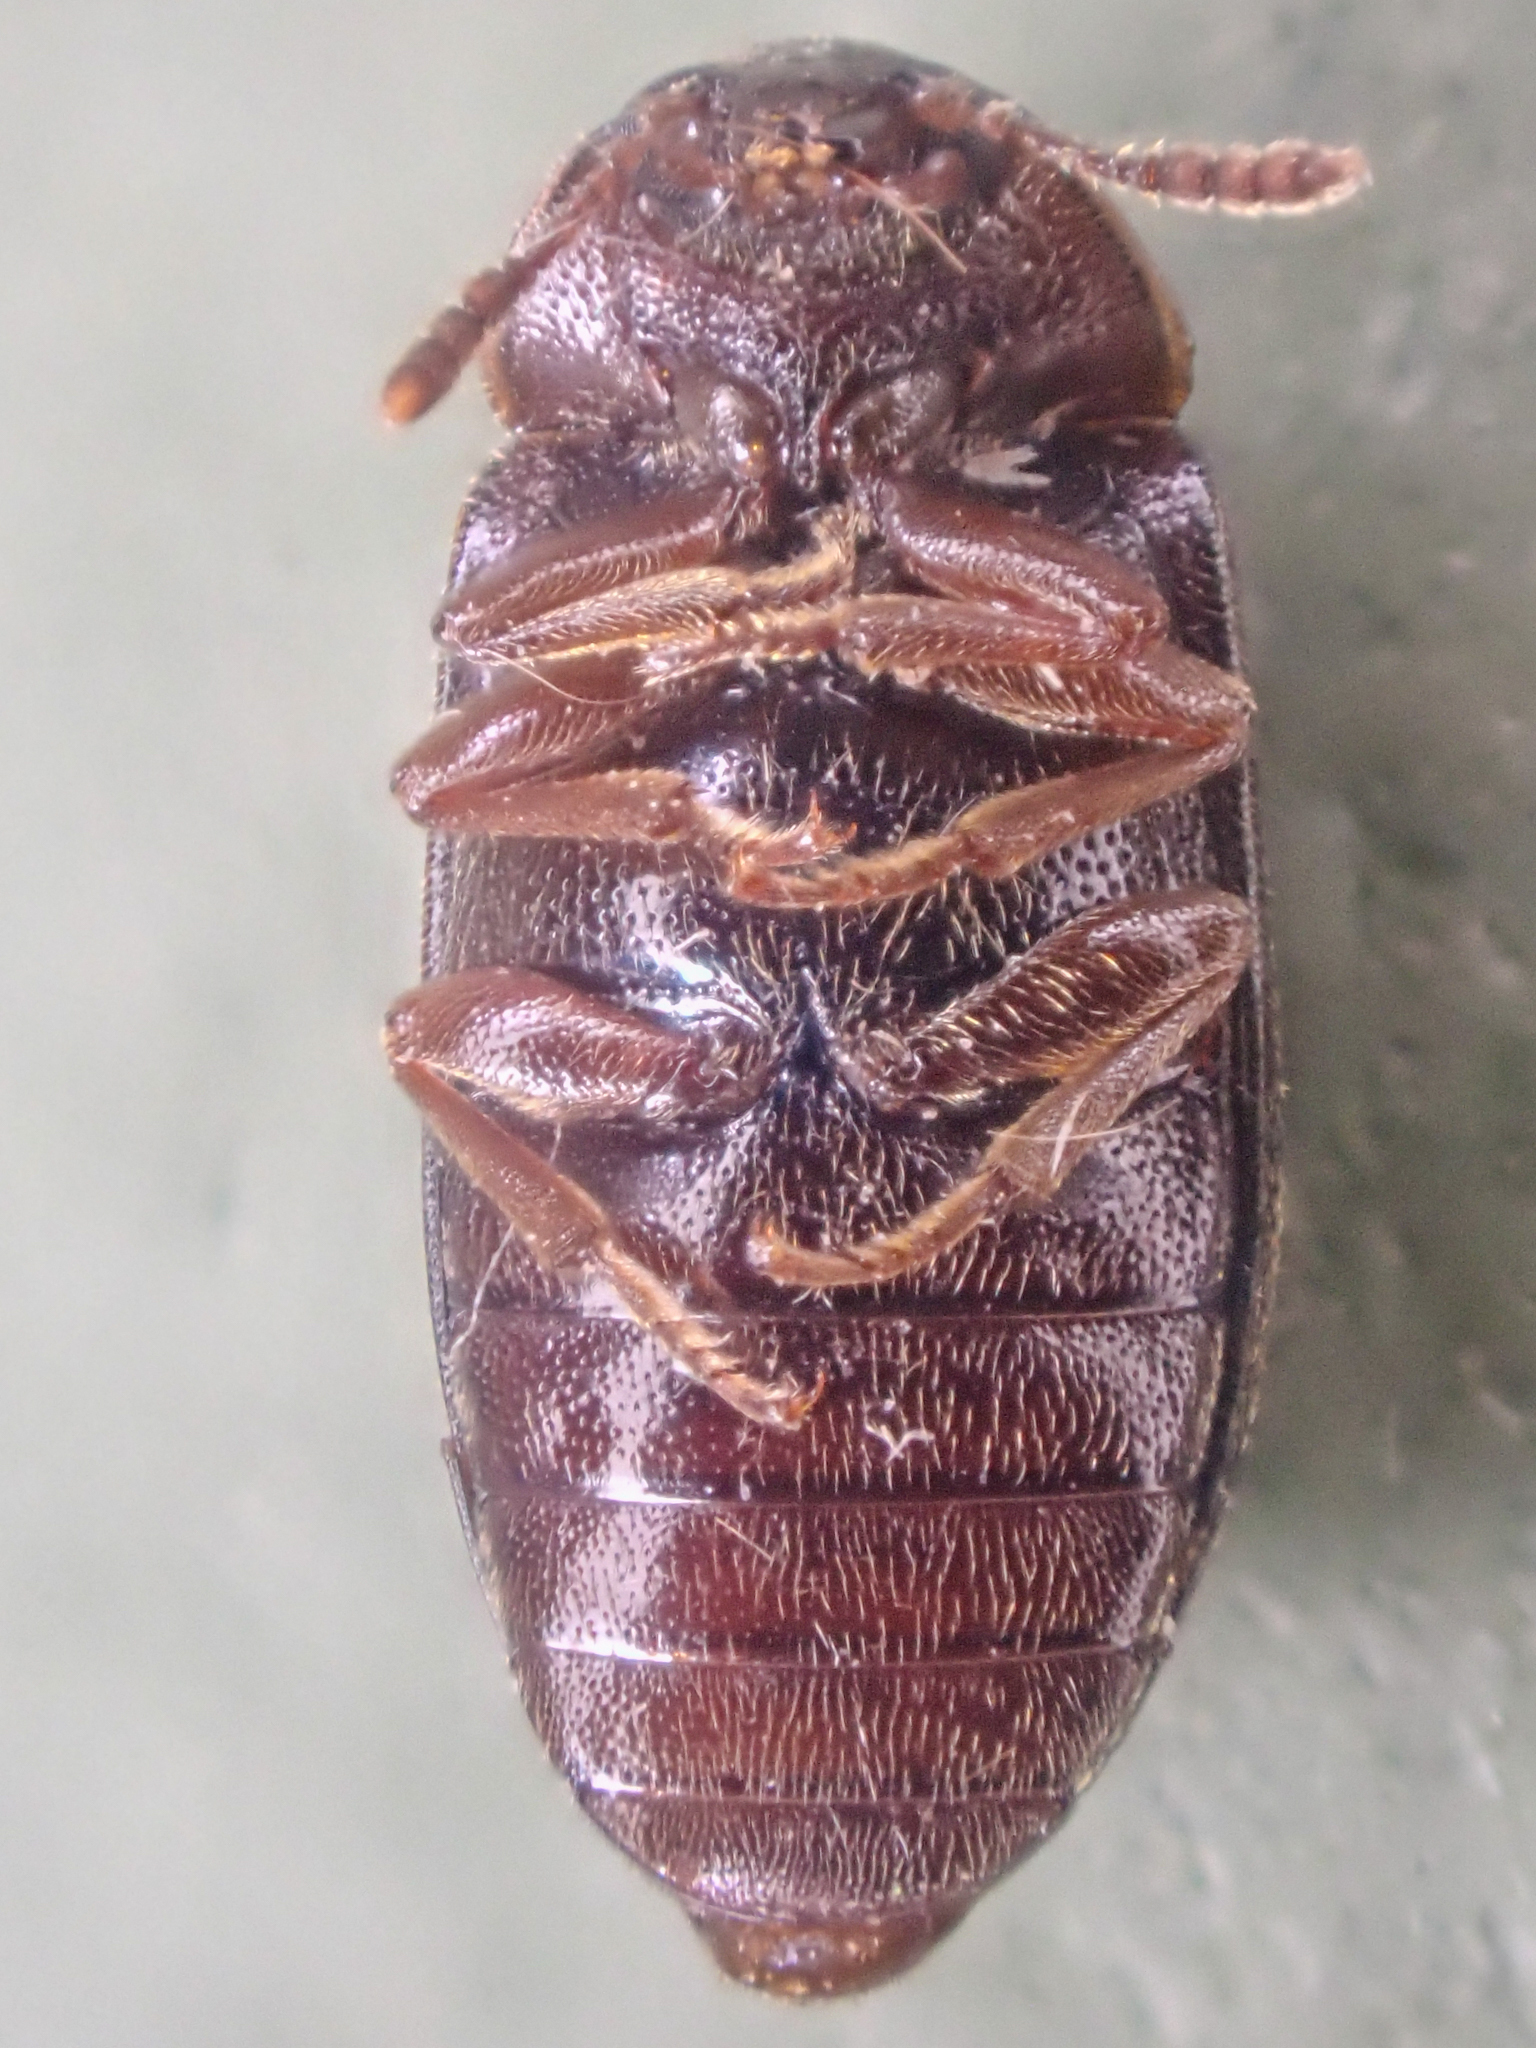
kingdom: Animalia
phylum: Arthropoda
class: Insecta
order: Coleoptera
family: Tetratomidae
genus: Tetratoma
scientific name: Tetratoma concolor
